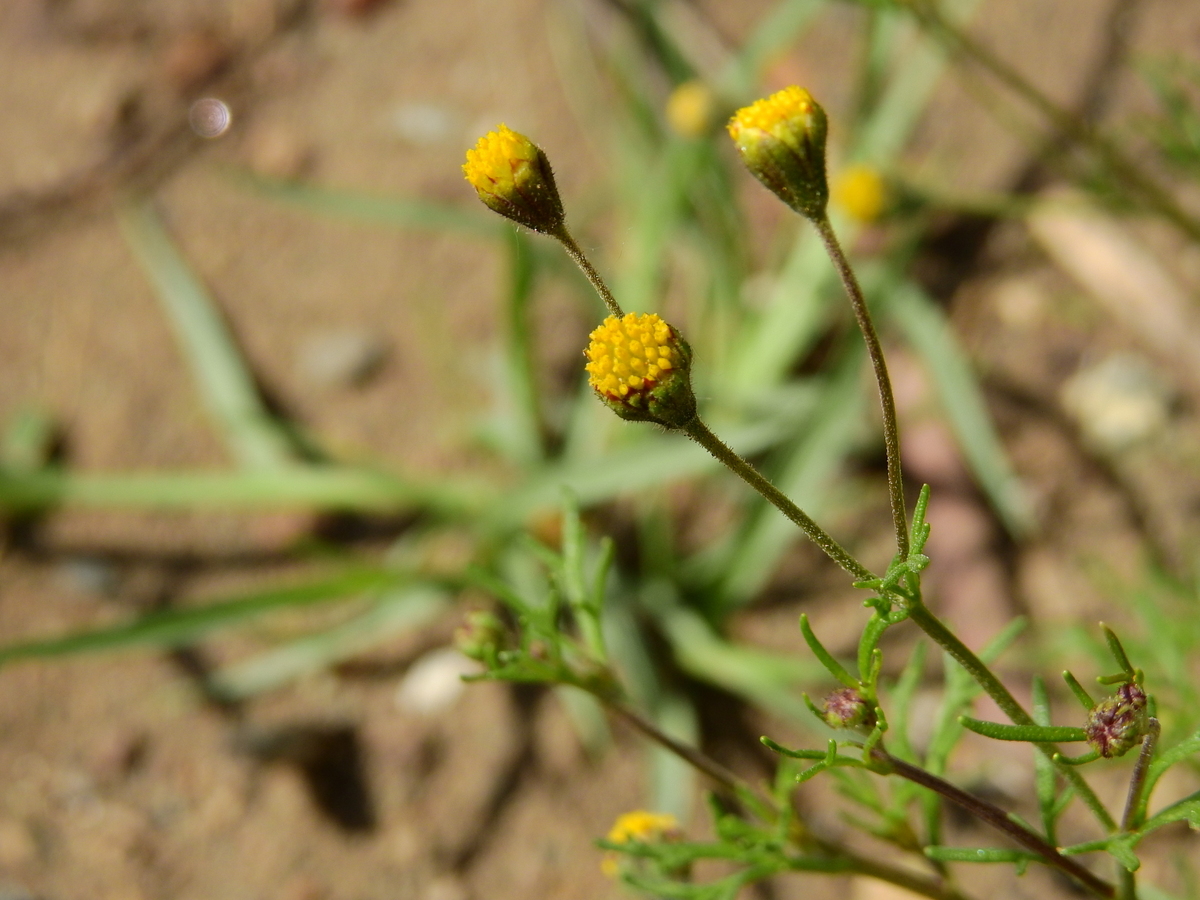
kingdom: Plantae
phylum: Tracheophyta
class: Magnoliopsida
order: Asterales
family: Asteraceae
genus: Picradeniopsis
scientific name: Picradeniopsis multiflora
